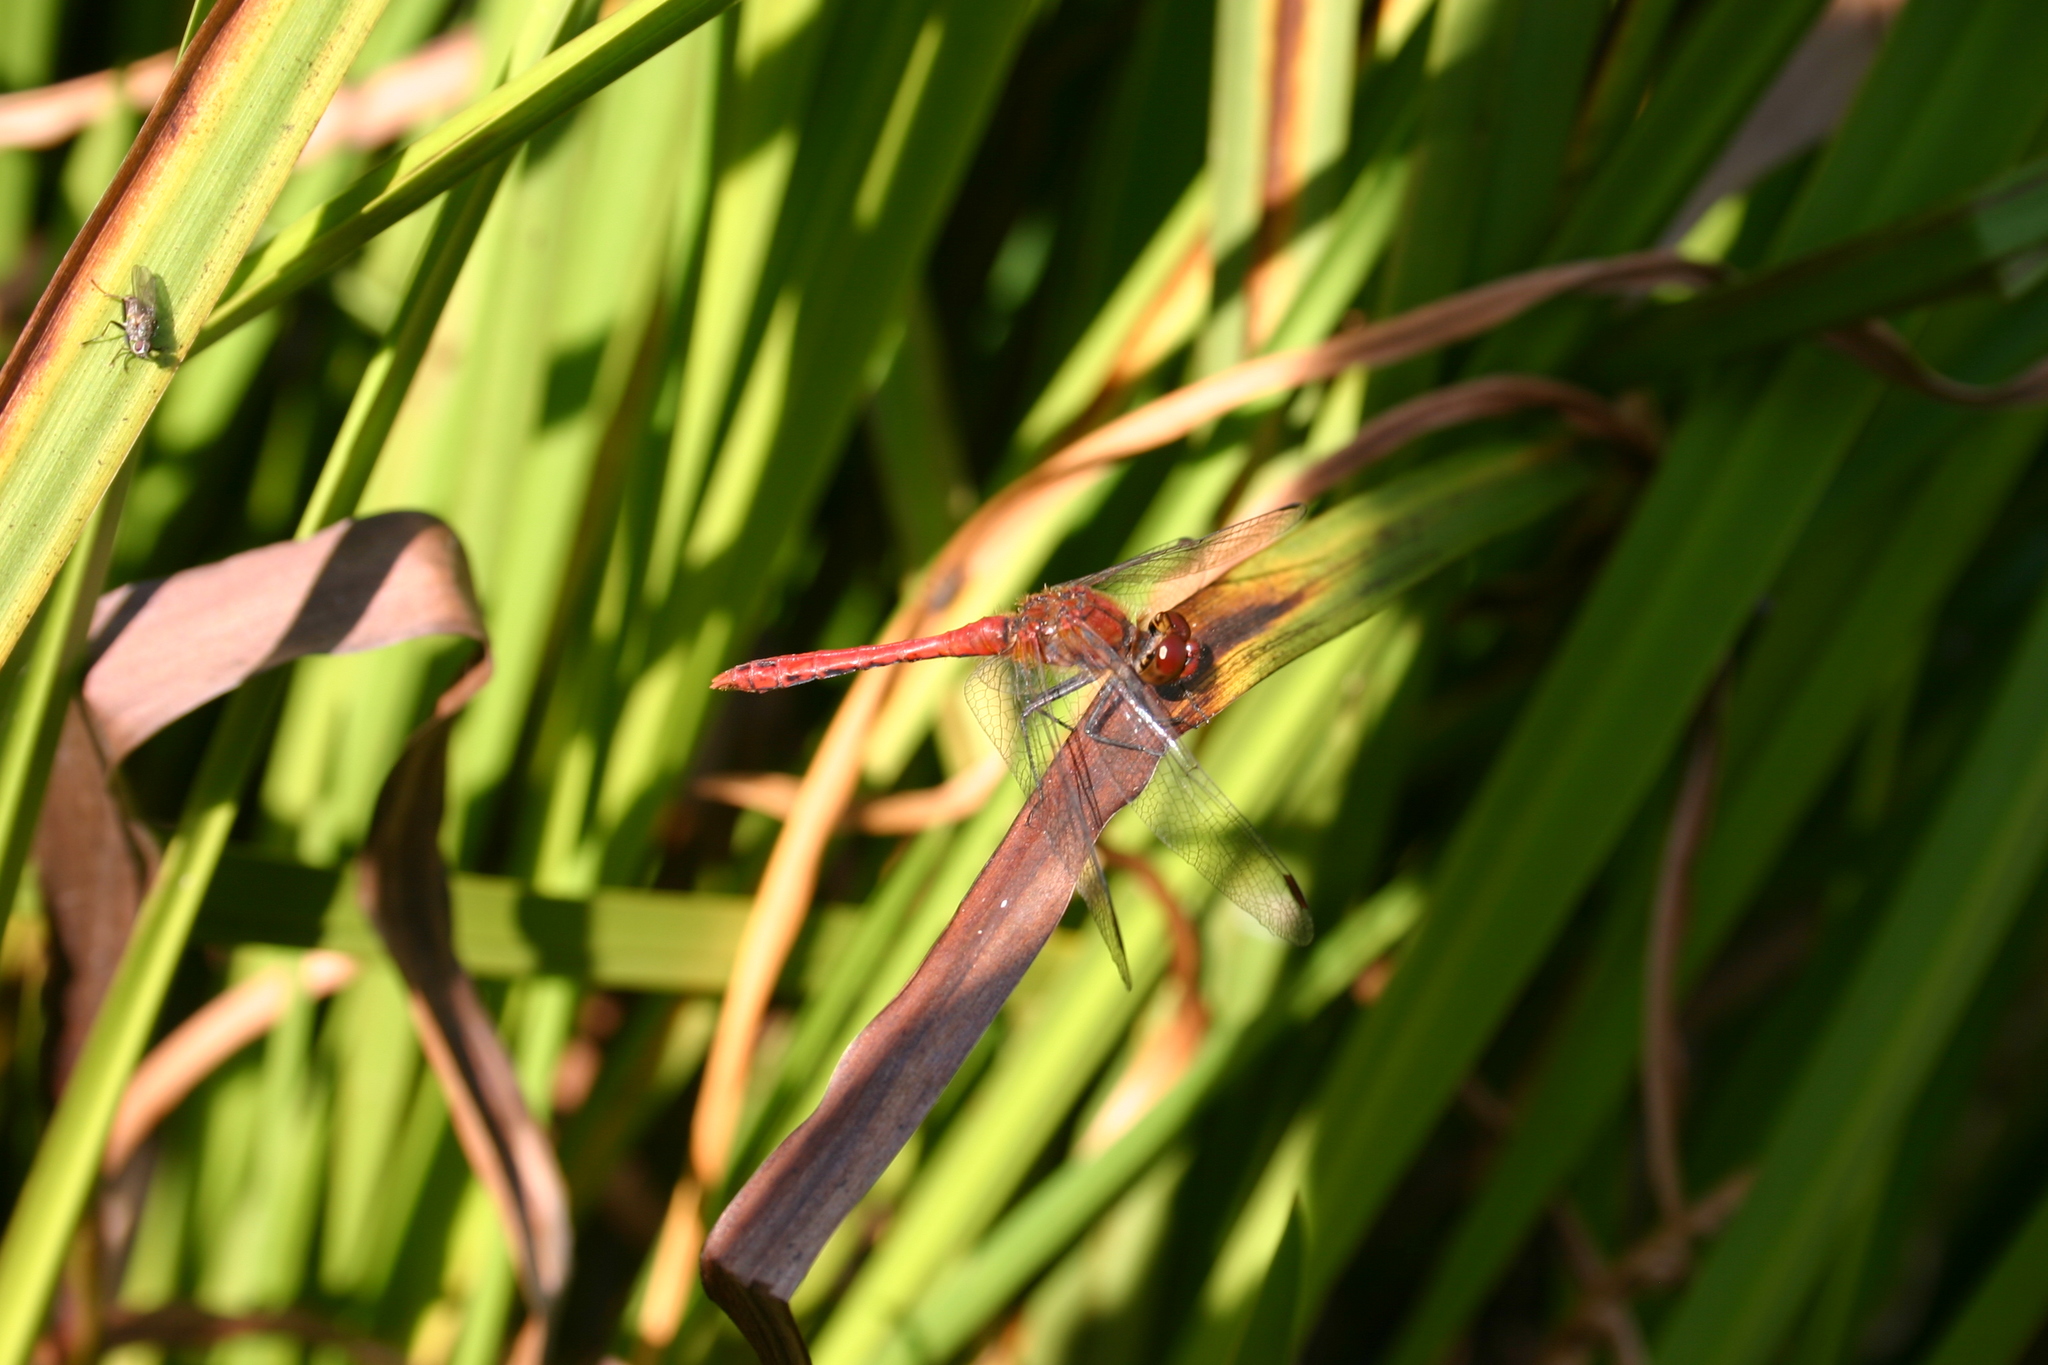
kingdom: Animalia
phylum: Arthropoda
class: Insecta
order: Odonata
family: Libellulidae
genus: Sympetrum
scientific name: Sympetrum sanguineum
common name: Ruddy darter
